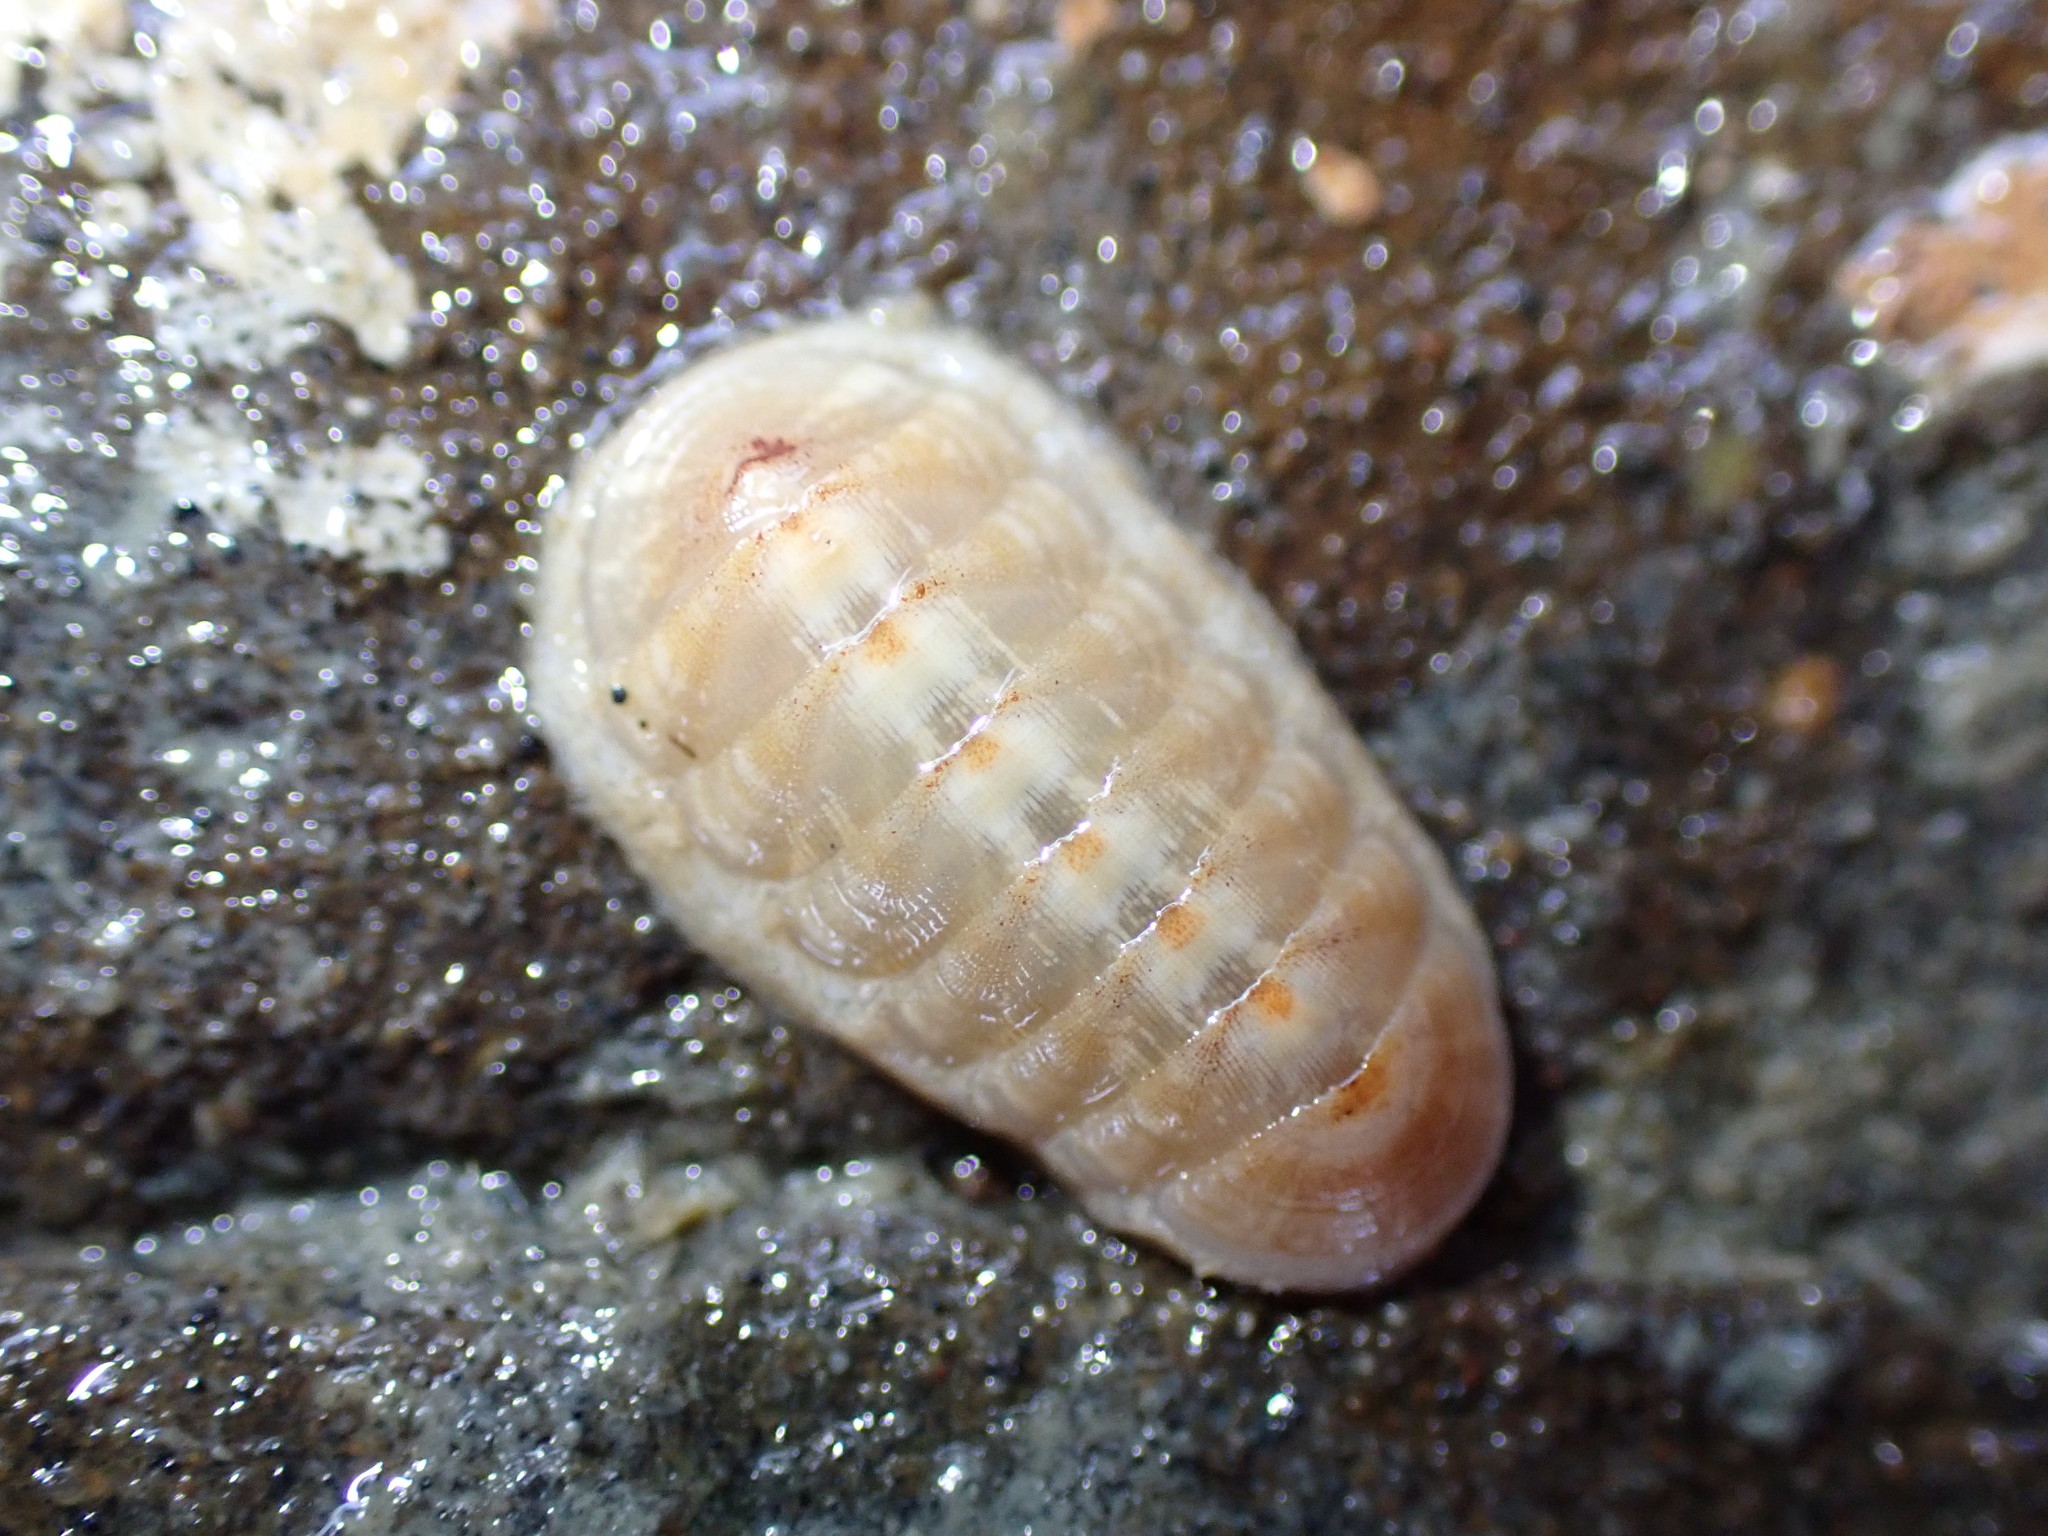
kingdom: Animalia
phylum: Mollusca
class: Polyplacophora
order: Lepidopleurida
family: Leptochitonidae
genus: Leptochiton
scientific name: Leptochiton inquinatus
